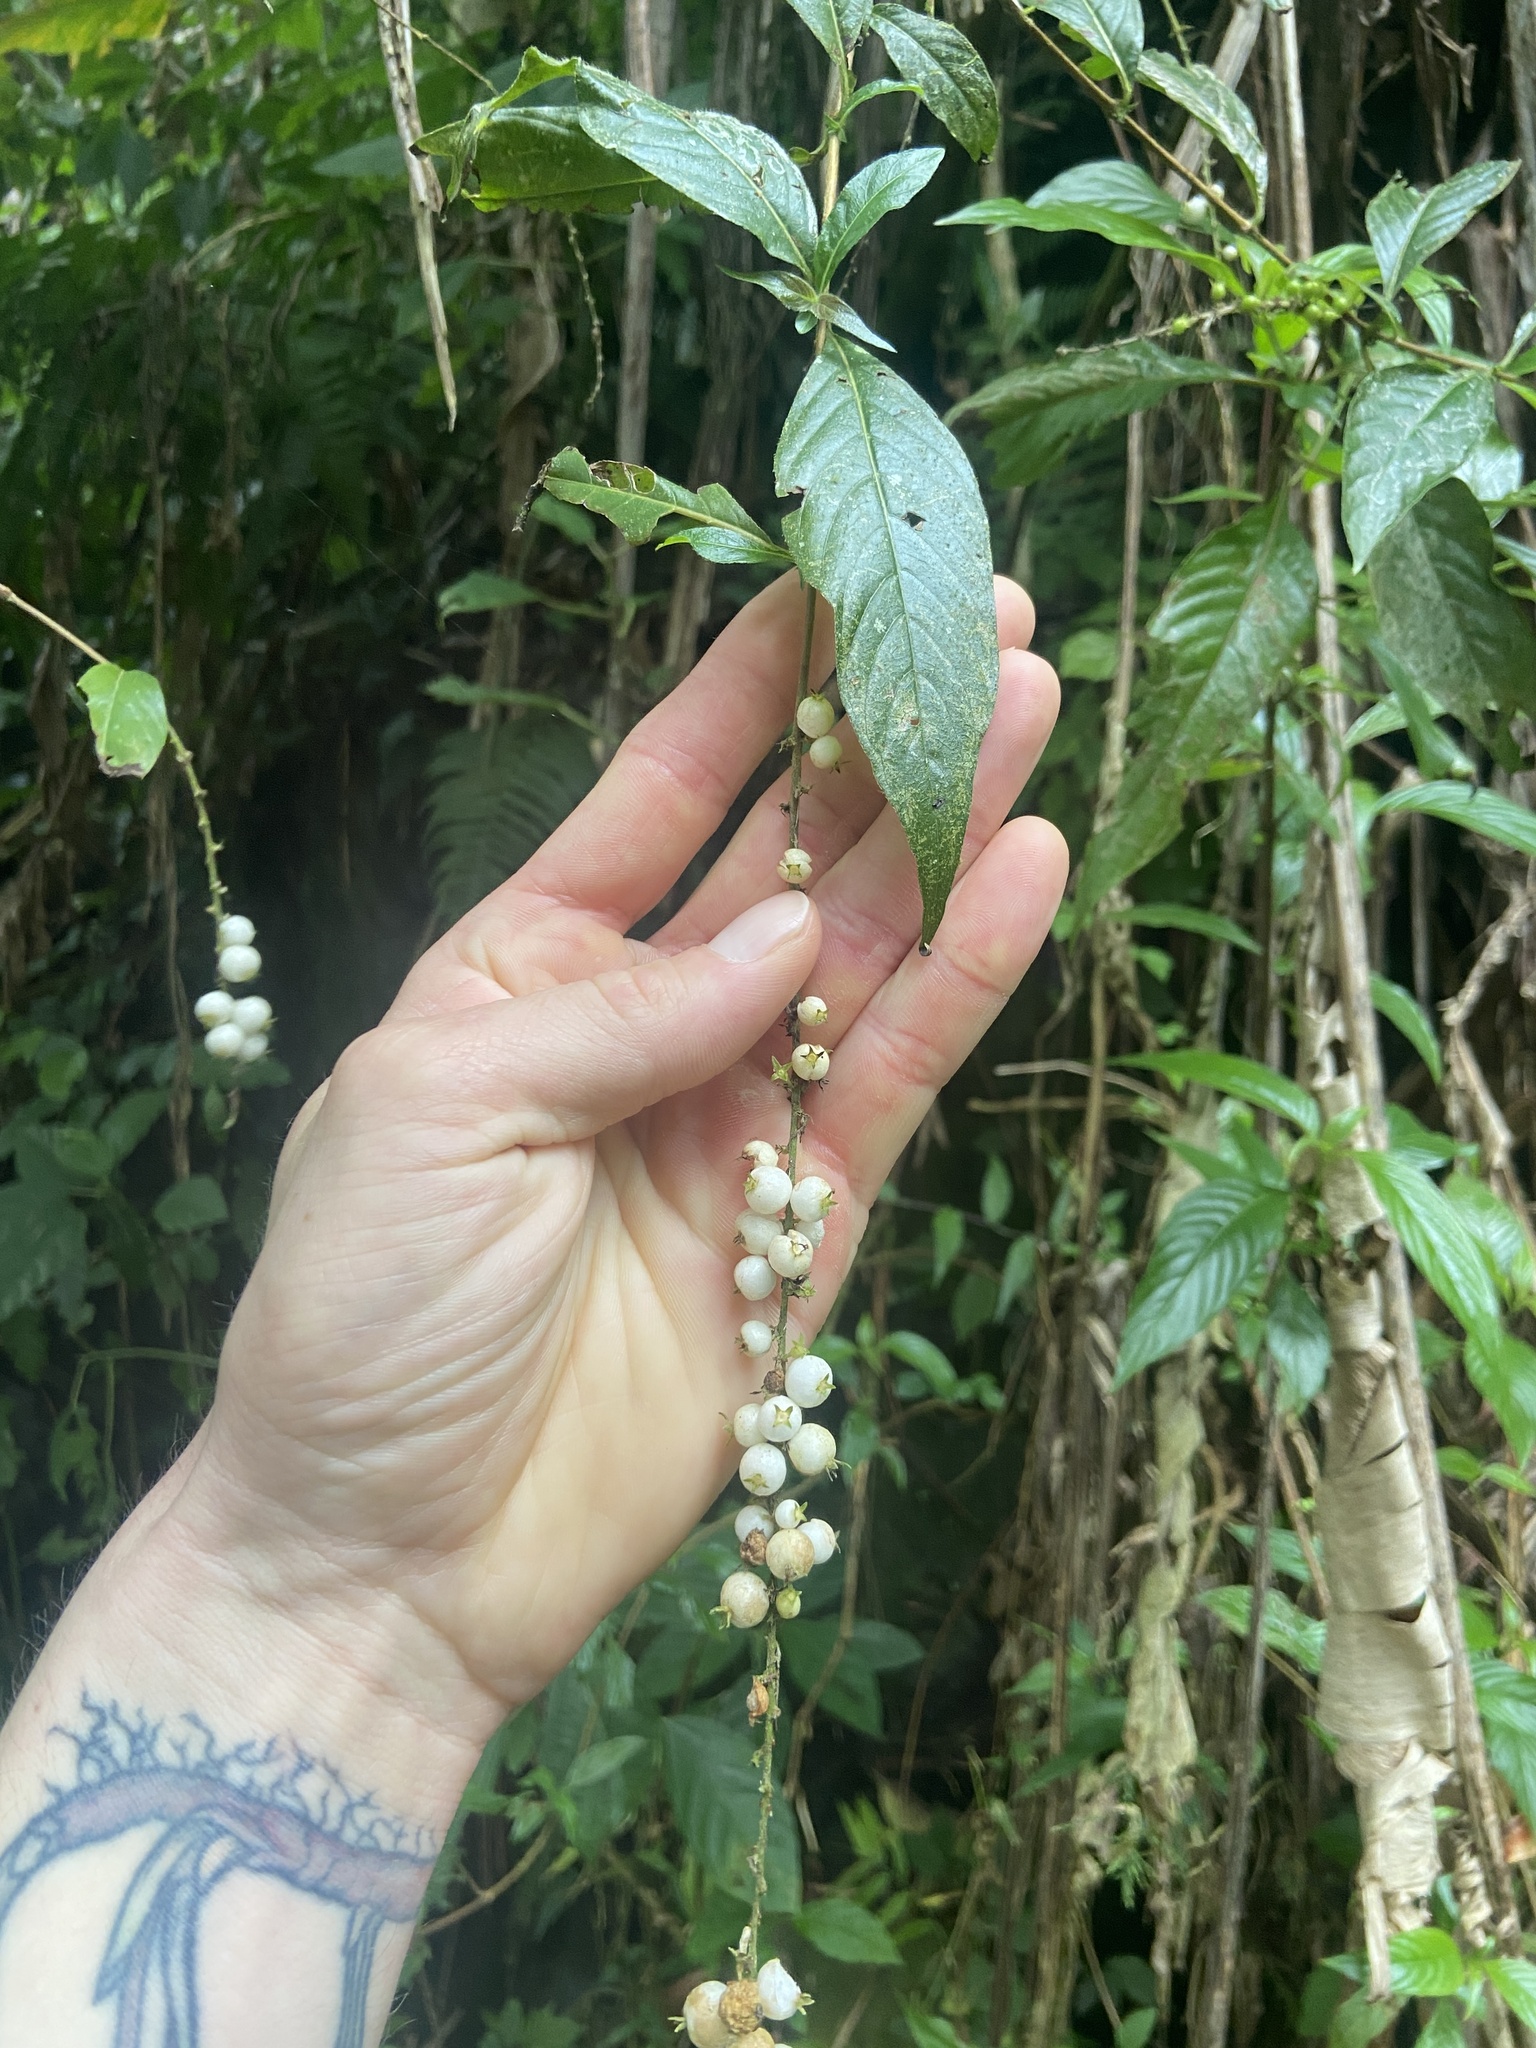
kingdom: Plantae
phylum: Tracheophyta
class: Magnoliopsida
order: Gentianales
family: Rubiaceae
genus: Gonzalagunia
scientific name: Gonzalagunia hirsuta
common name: Mata de mariposa
